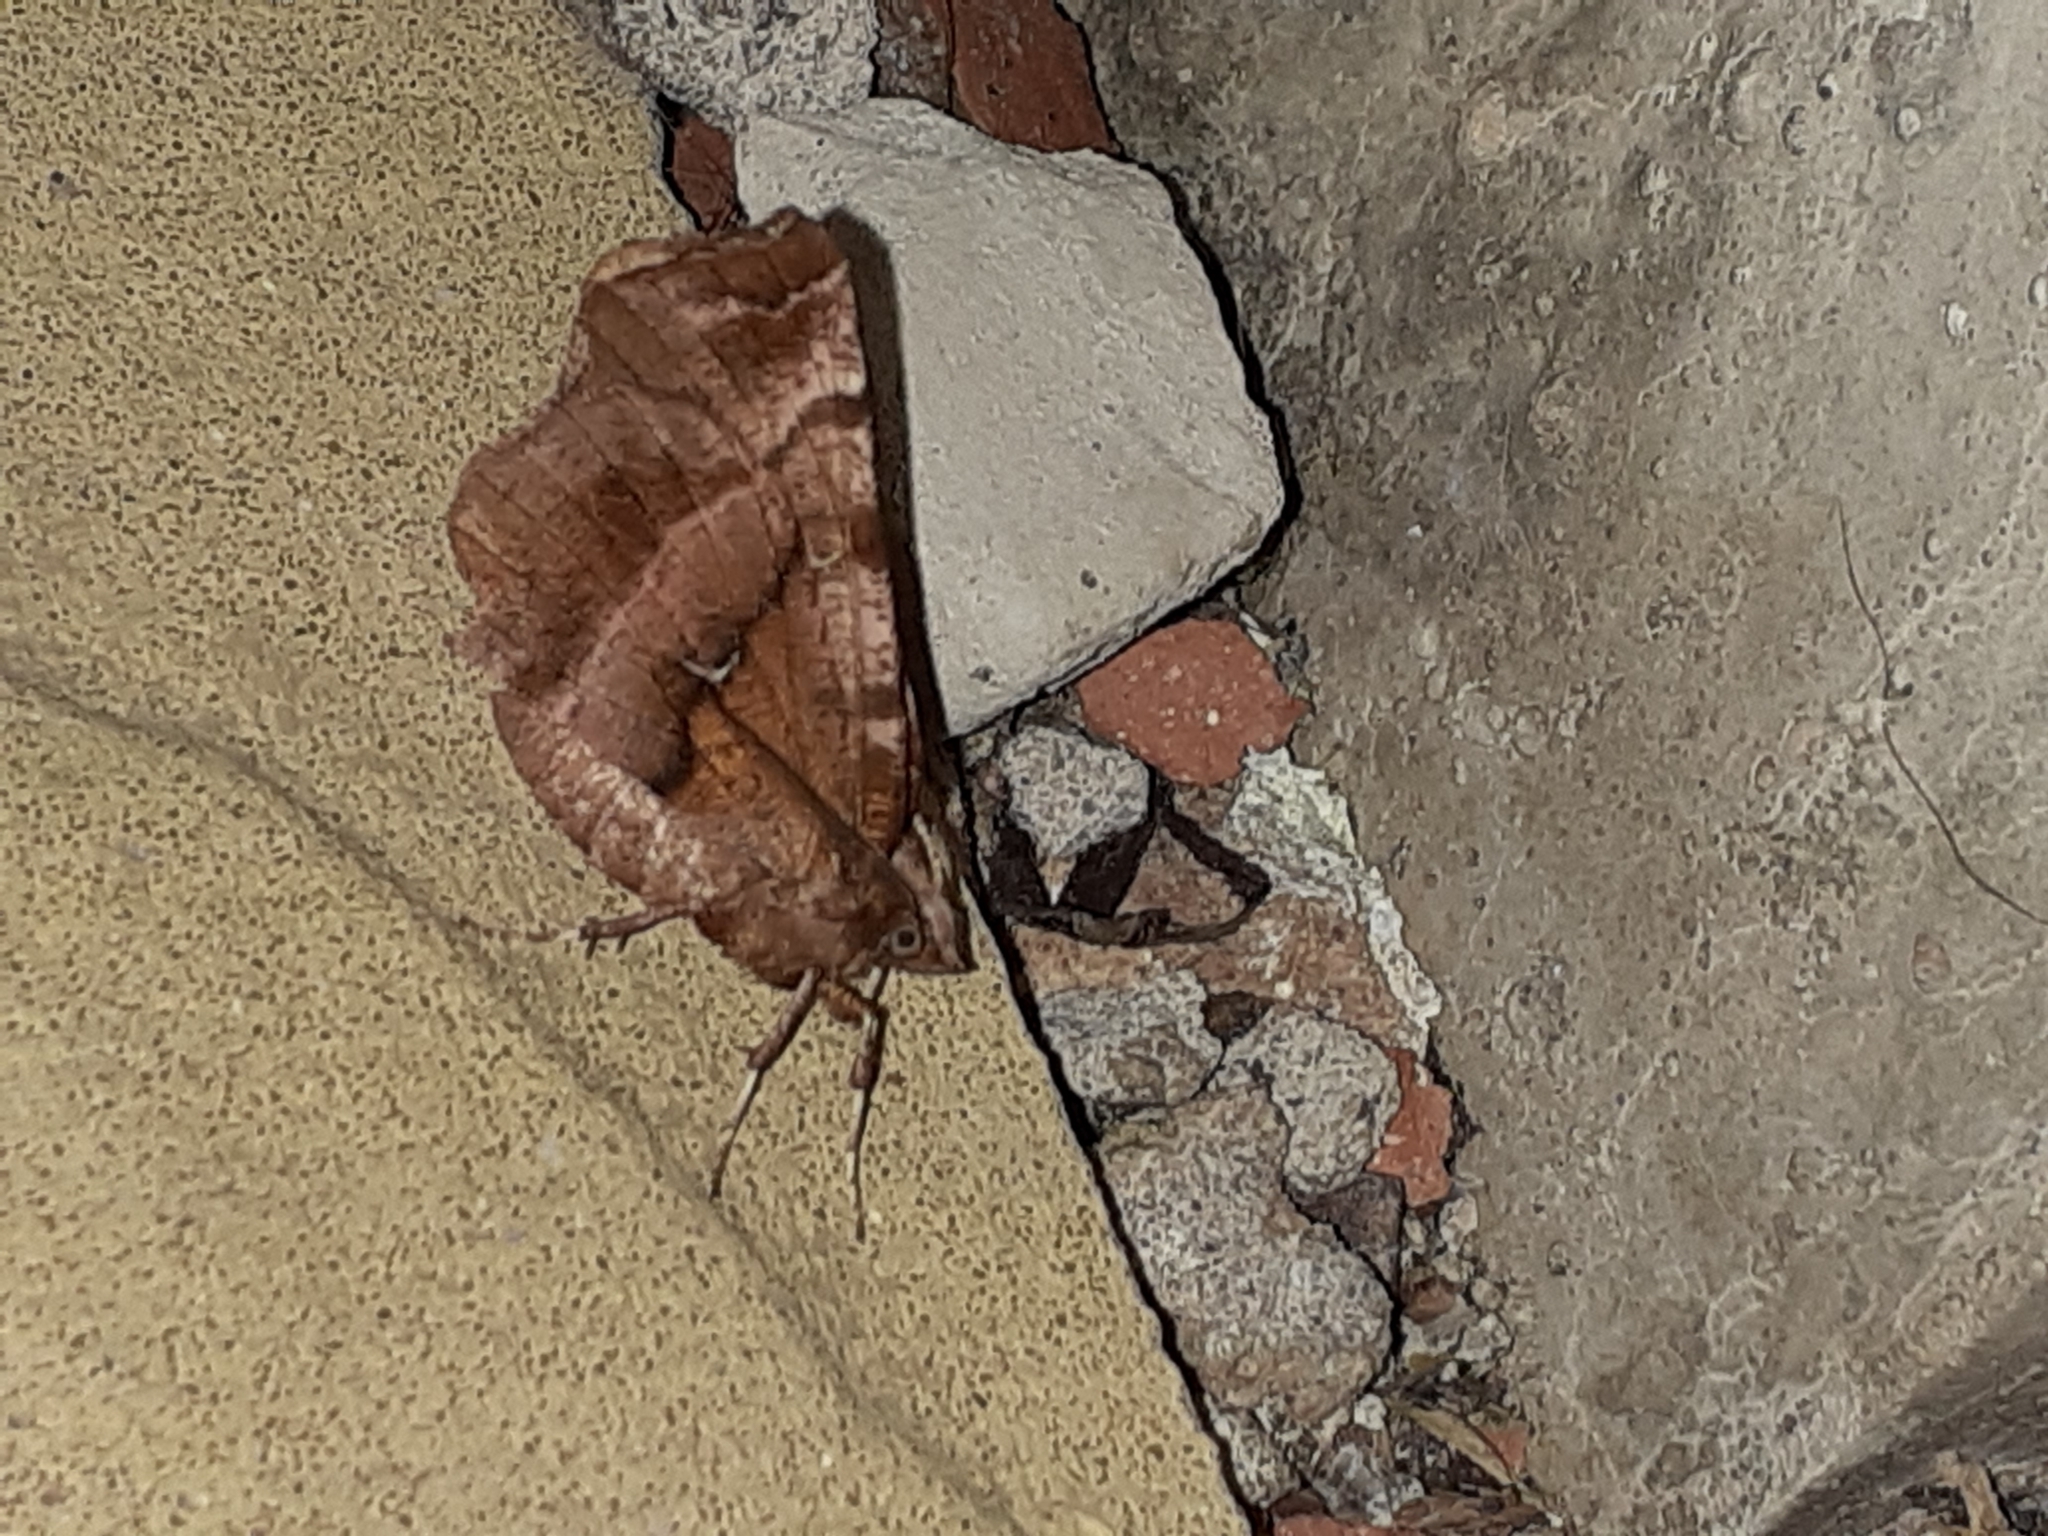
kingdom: Animalia
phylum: Arthropoda
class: Insecta
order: Lepidoptera
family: Geometridae
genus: Selenia
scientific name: Selenia dentaria
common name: Early thorn
